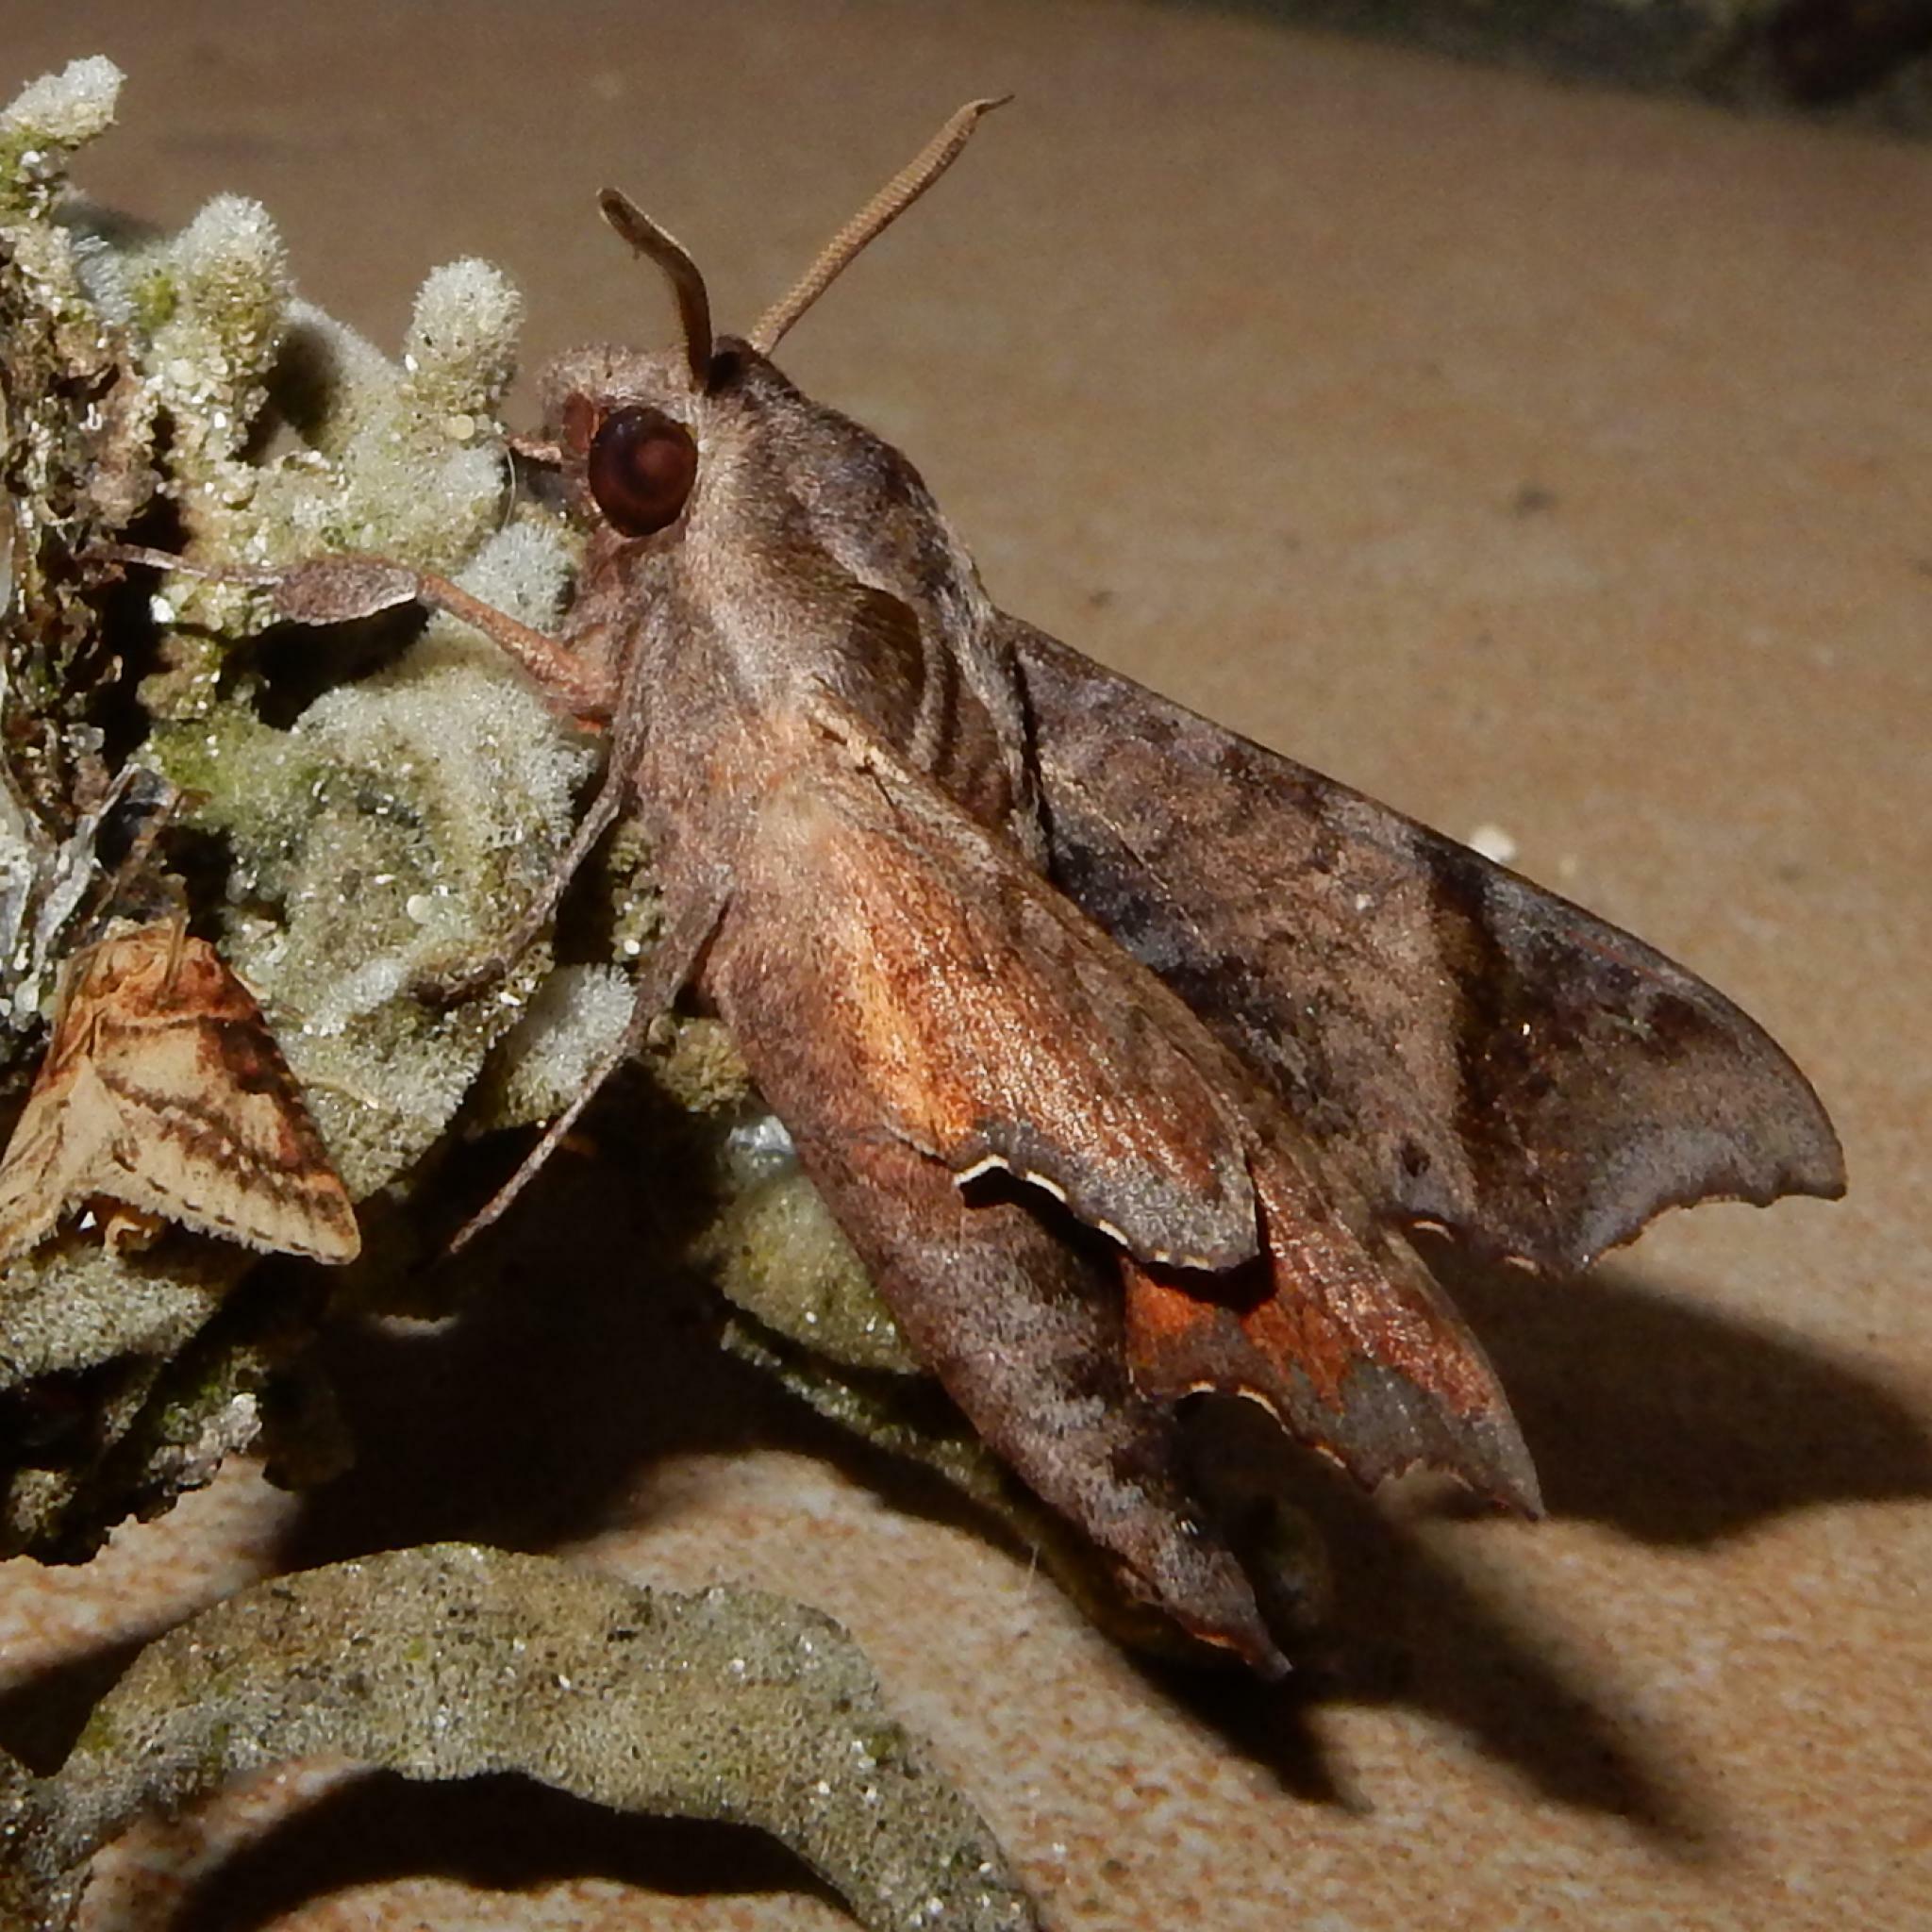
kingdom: Animalia
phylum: Arthropoda
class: Insecta
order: Lepidoptera
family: Sphingidae
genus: Temnora
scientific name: Temnora pylades
